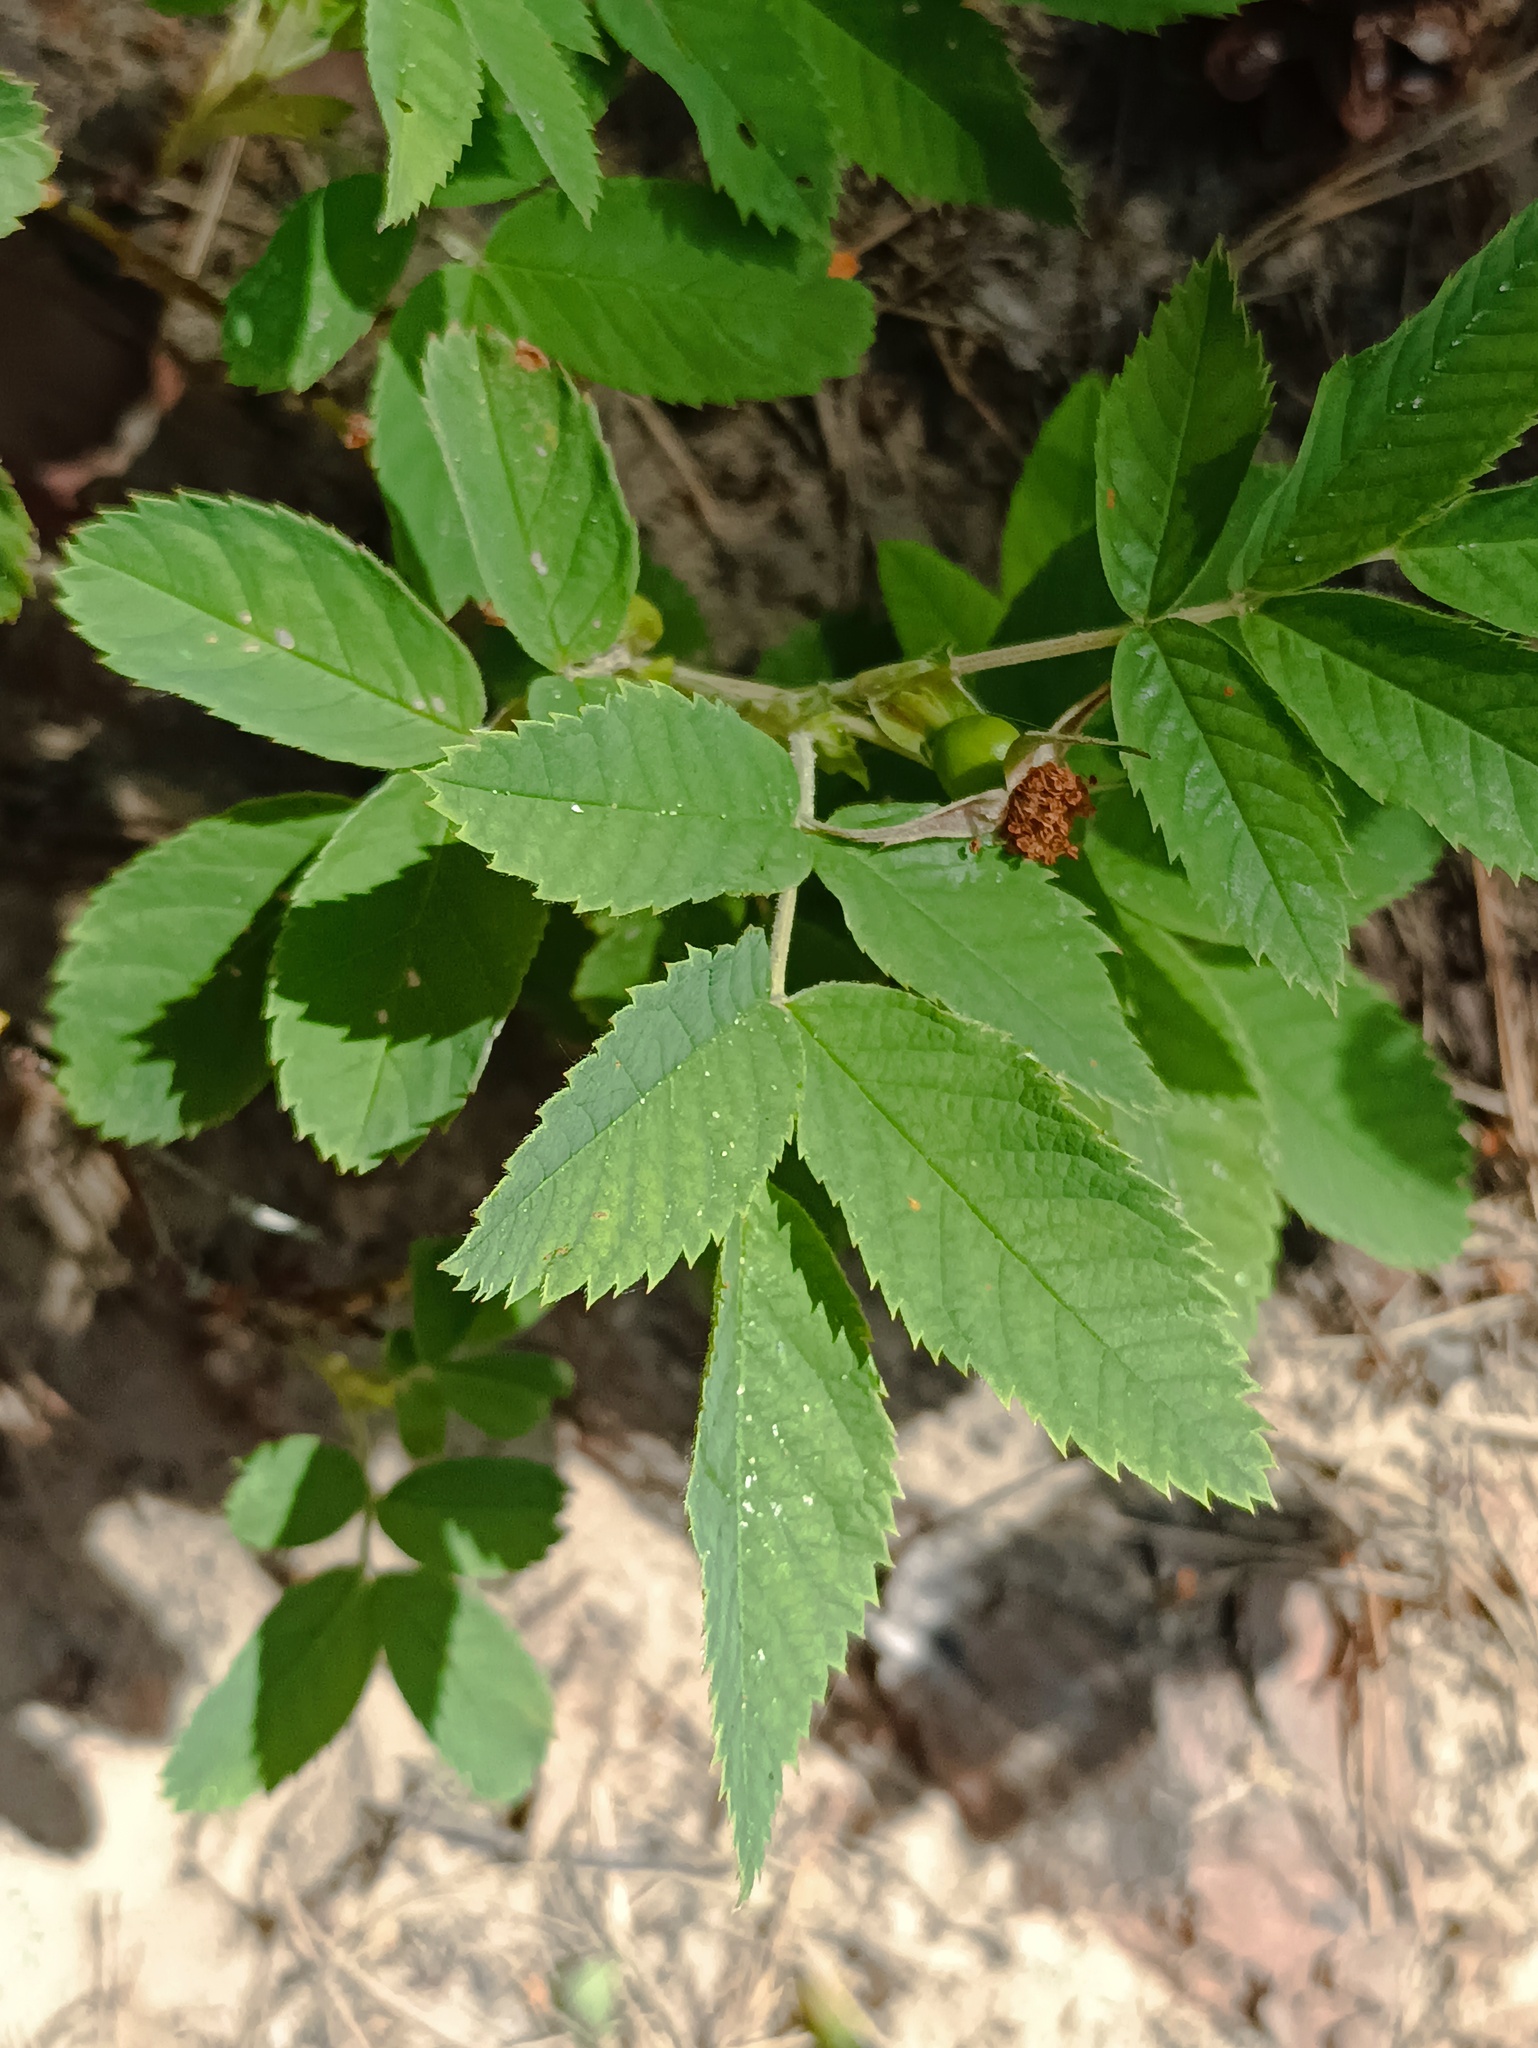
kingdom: Plantae
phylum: Tracheophyta
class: Magnoliopsida
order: Rosales
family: Rosaceae
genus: Rosa
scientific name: Rosa majalis
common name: Cinnamon rose
